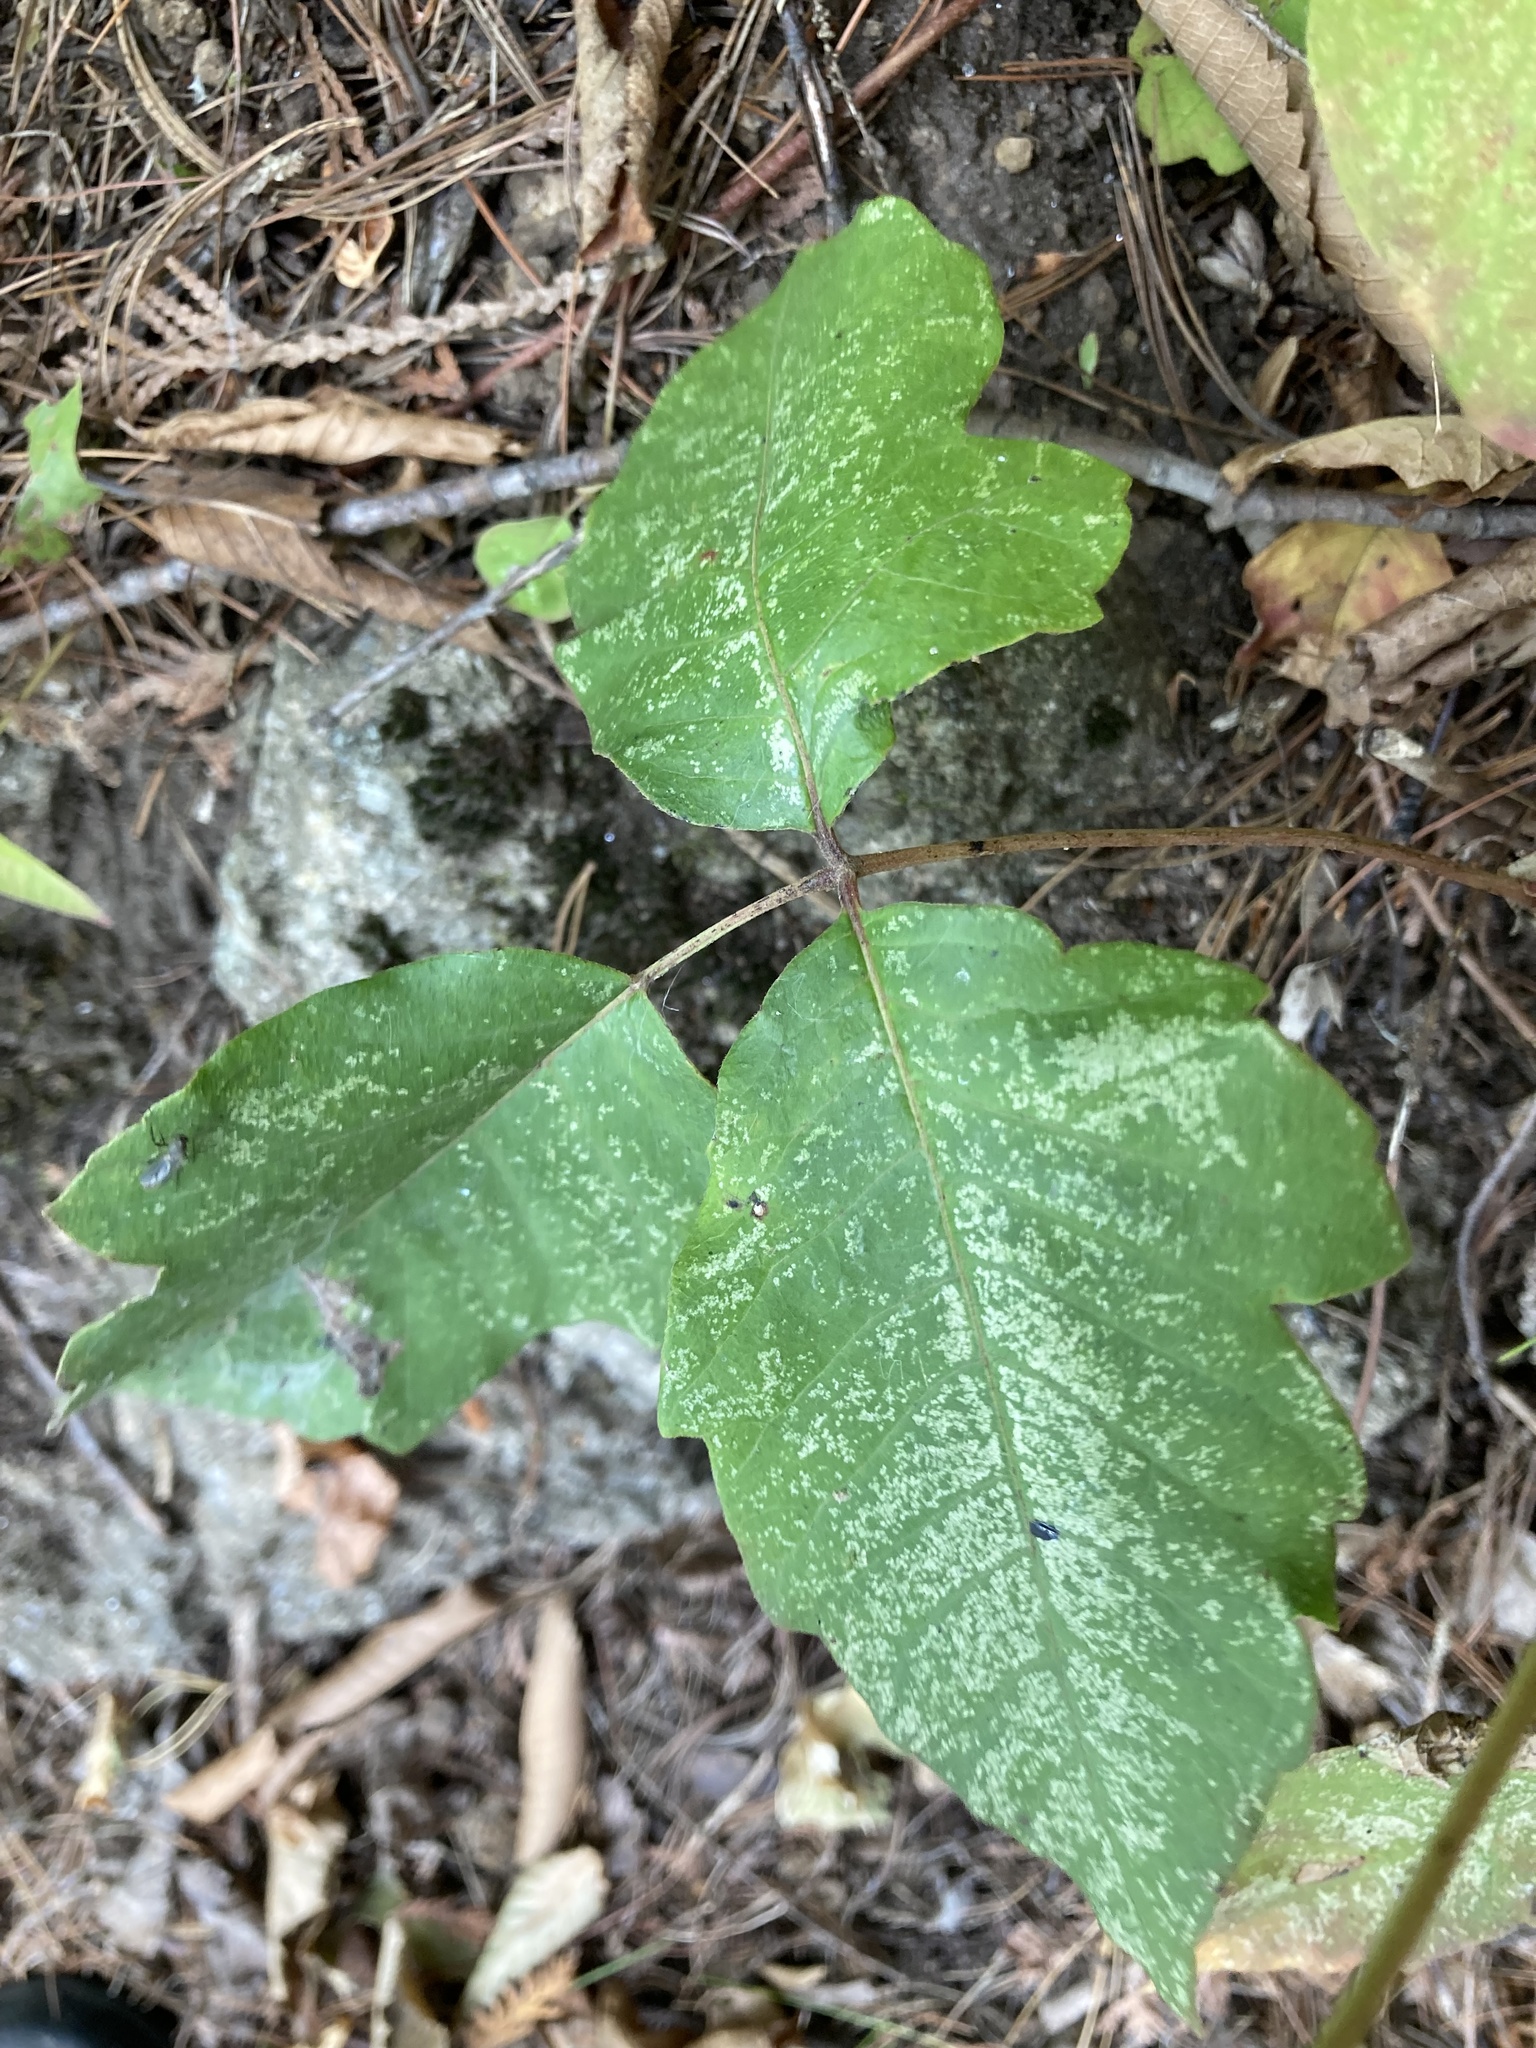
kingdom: Plantae
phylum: Tracheophyta
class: Magnoliopsida
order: Sapindales
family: Anacardiaceae
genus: Toxicodendron
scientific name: Toxicodendron radicans
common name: Poison ivy
